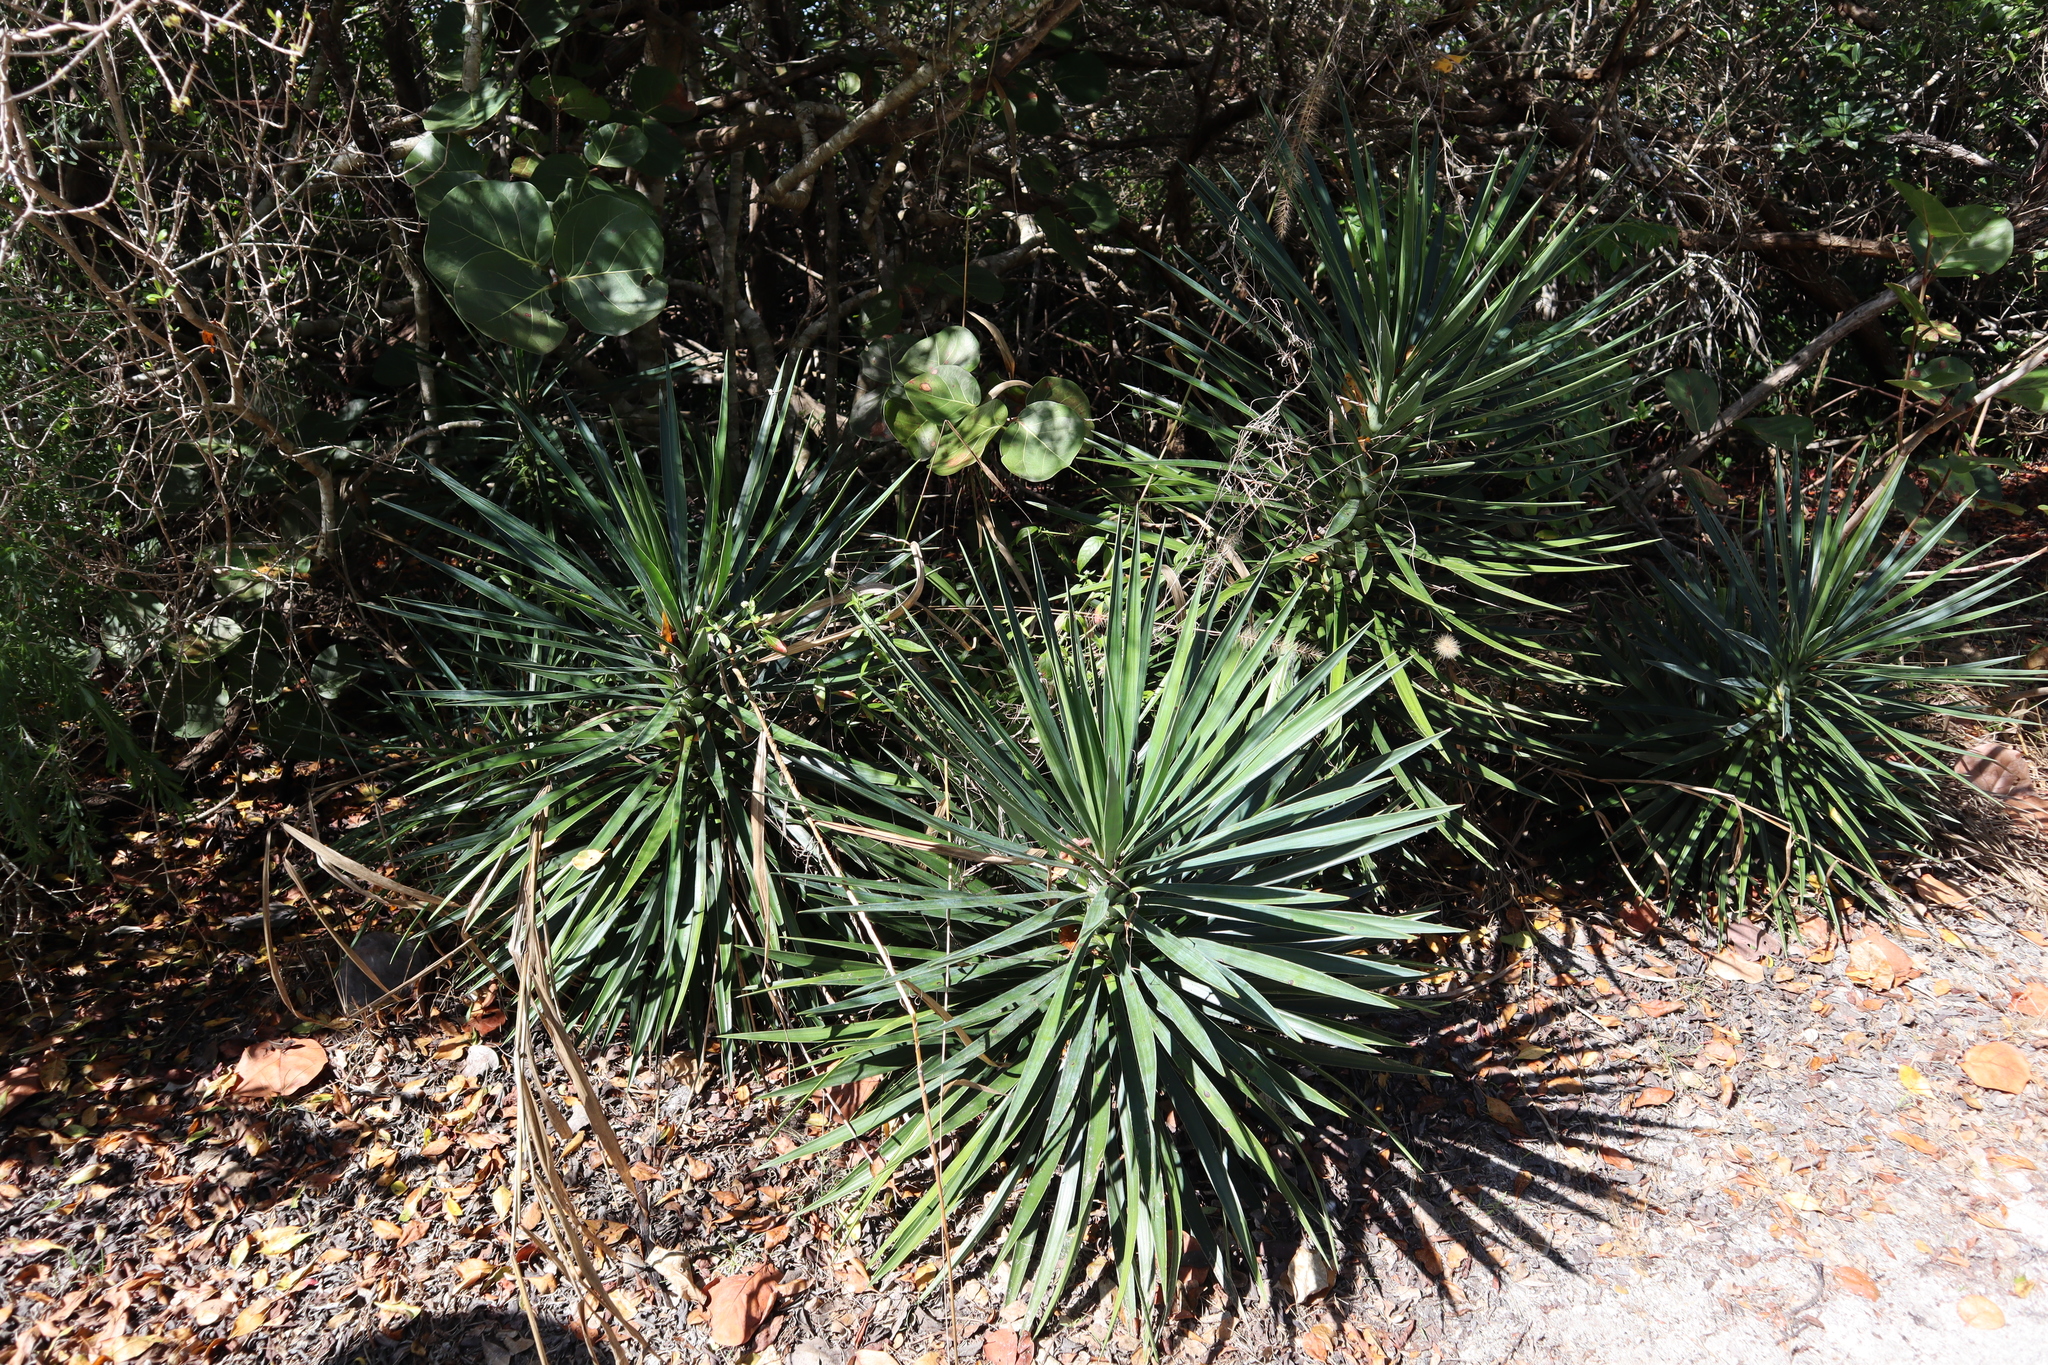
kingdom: Plantae
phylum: Tracheophyta
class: Liliopsida
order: Asparagales
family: Asparagaceae
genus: Yucca
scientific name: Yucca aloifolia
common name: Aloe yucca
